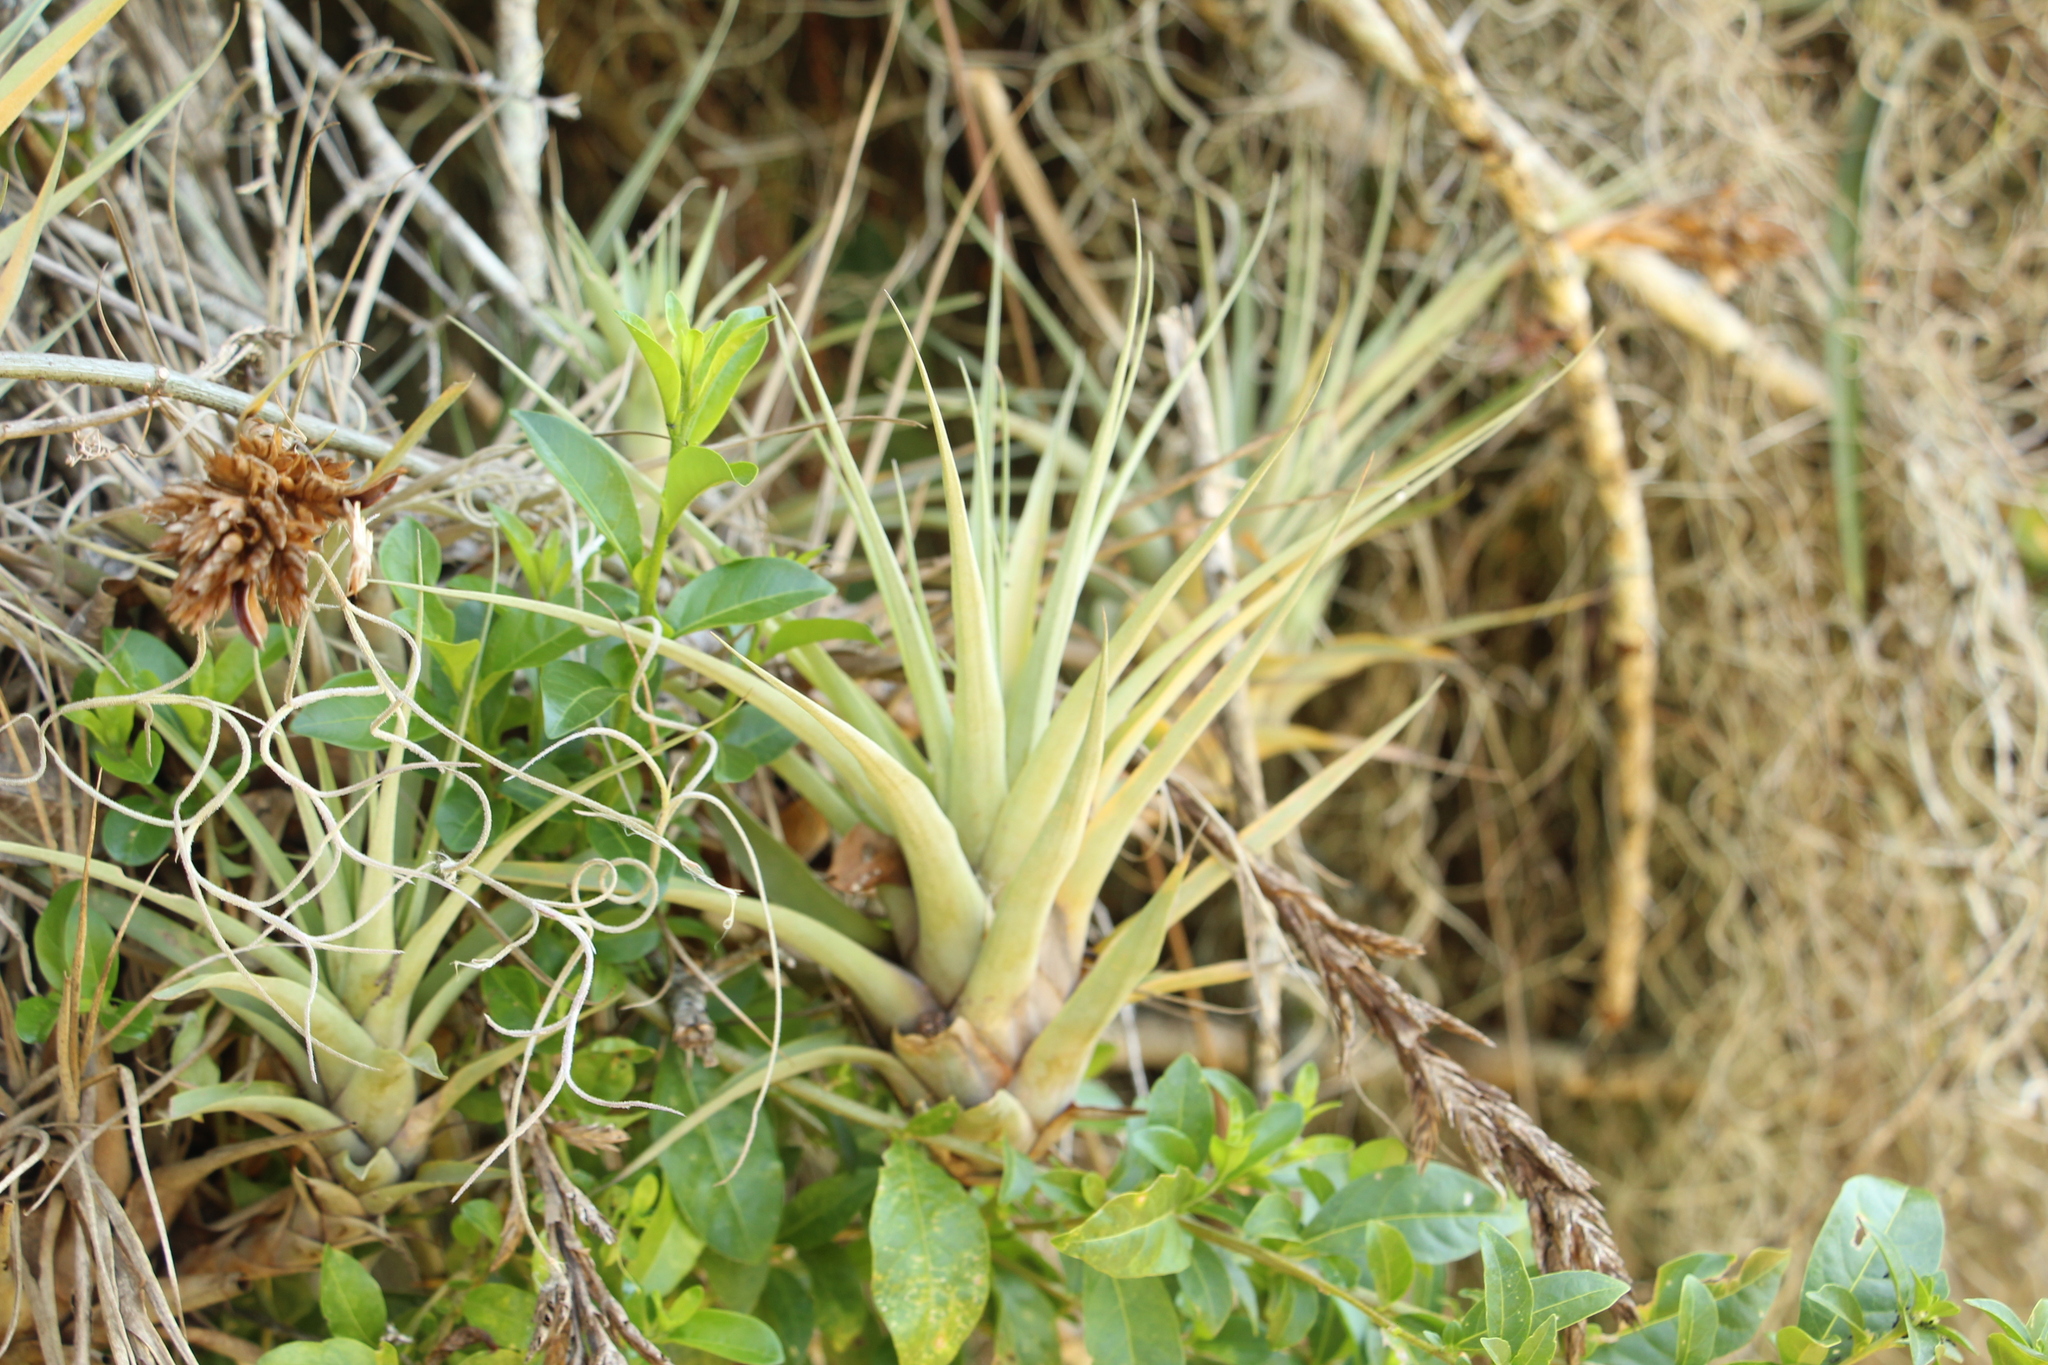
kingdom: Plantae
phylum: Tracheophyta
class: Liliopsida
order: Poales
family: Bromeliaceae
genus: Vriesea
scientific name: Vriesea myriantha
